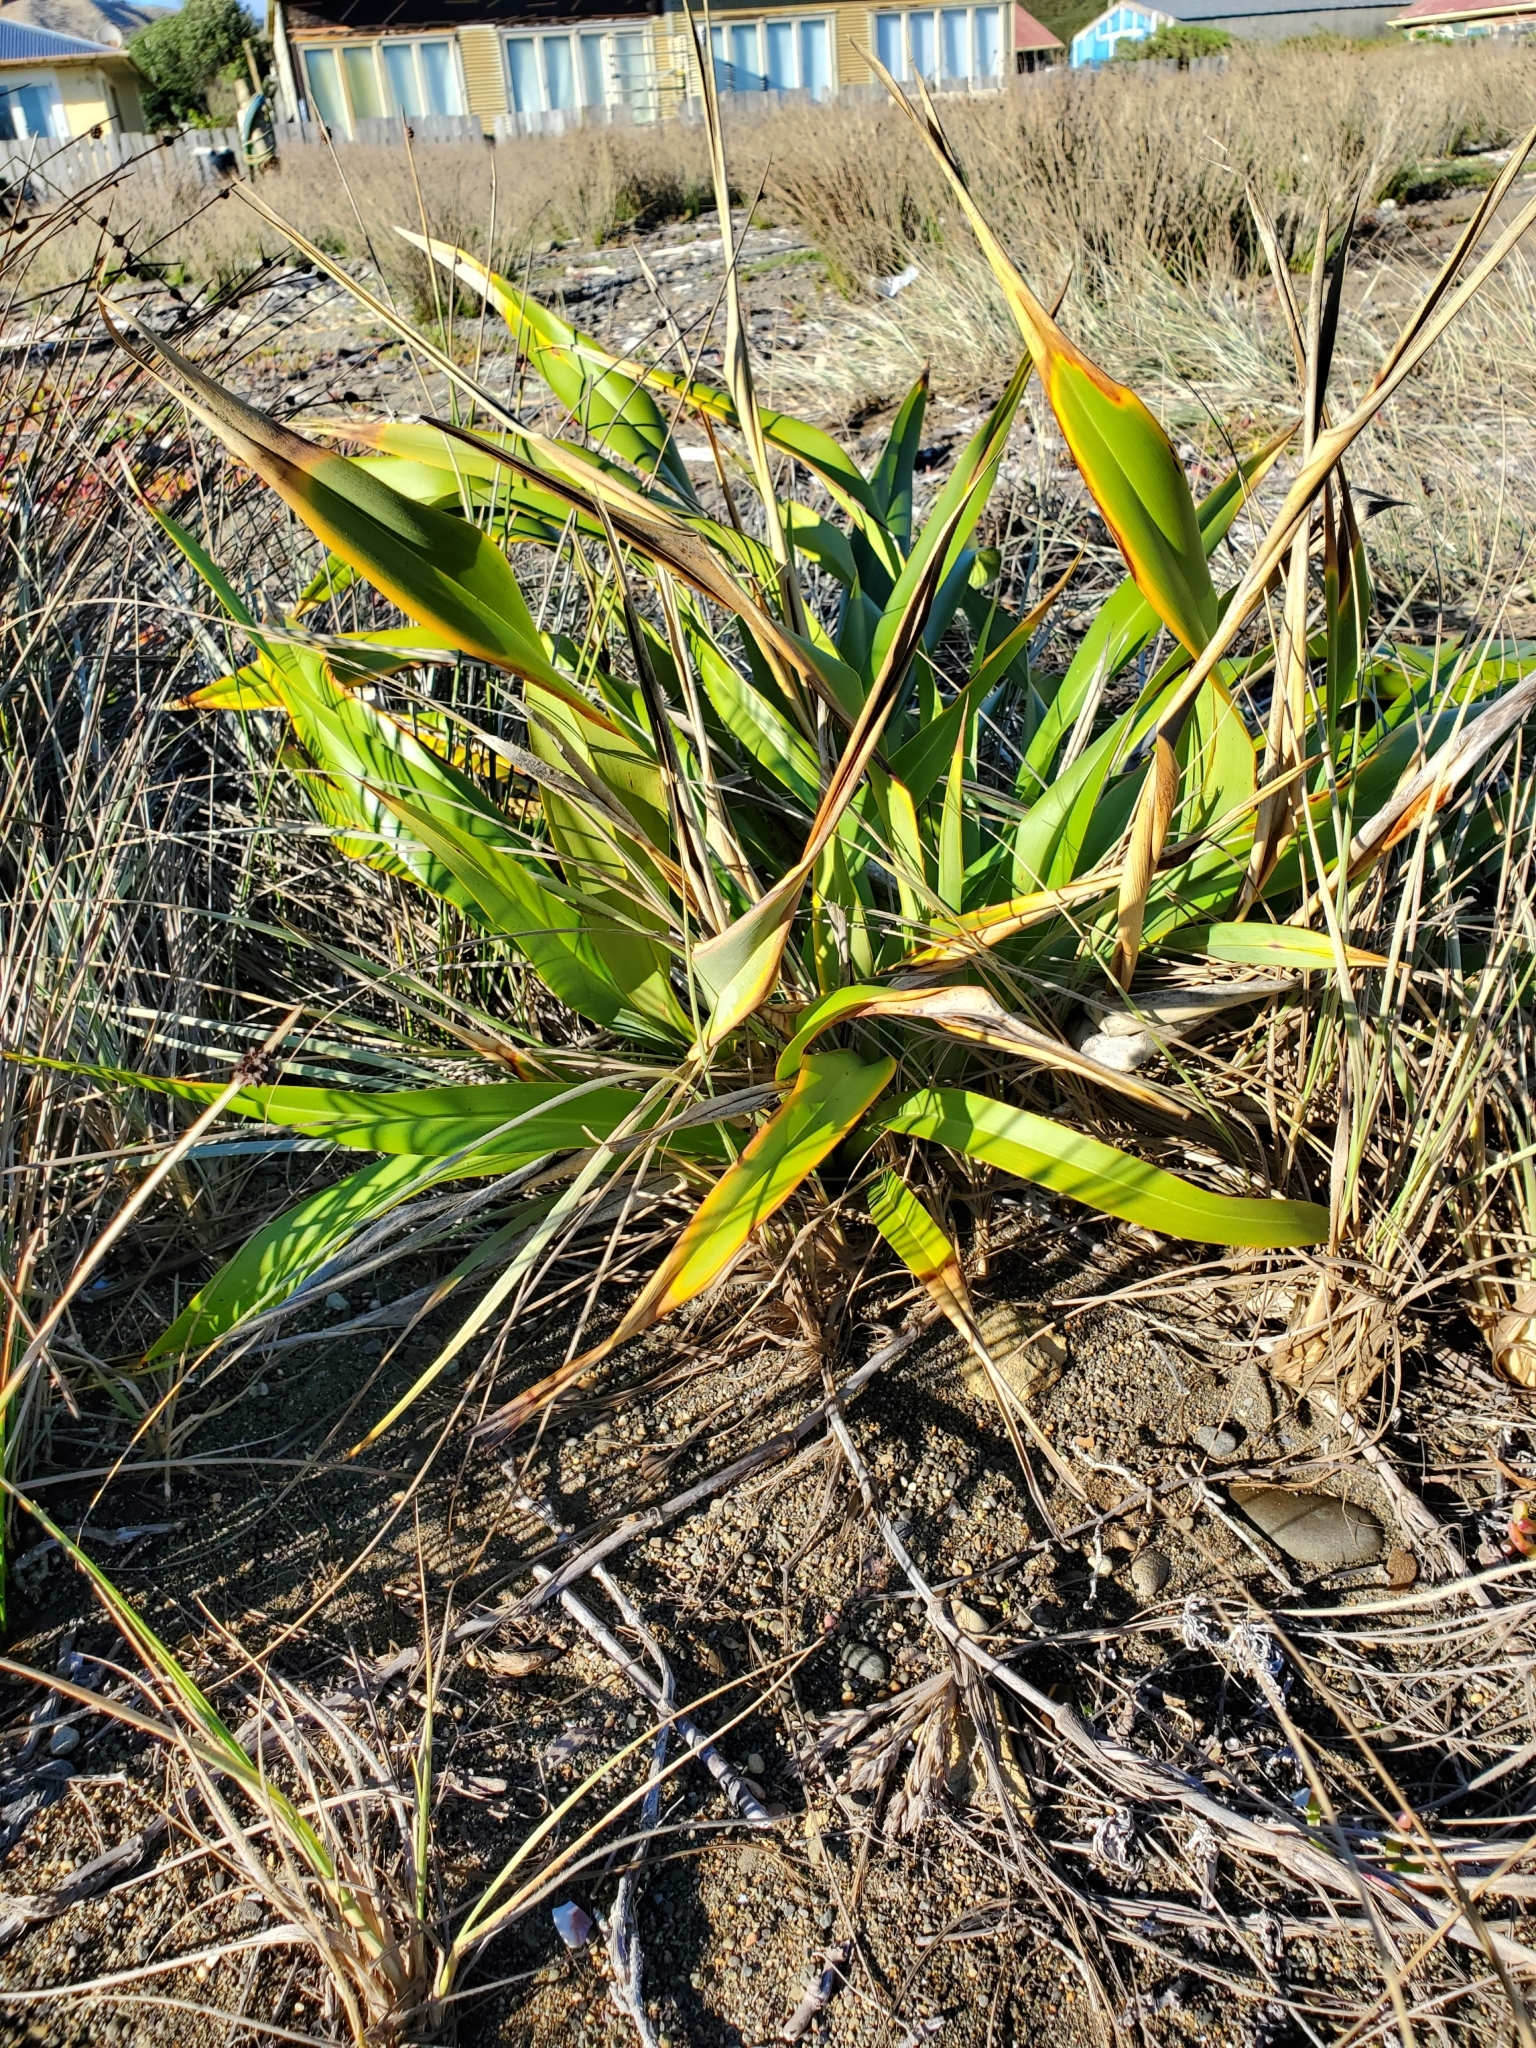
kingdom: Plantae
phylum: Tracheophyta
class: Liliopsida
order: Asparagales
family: Asphodelaceae
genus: Phormium
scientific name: Phormium colensoi
